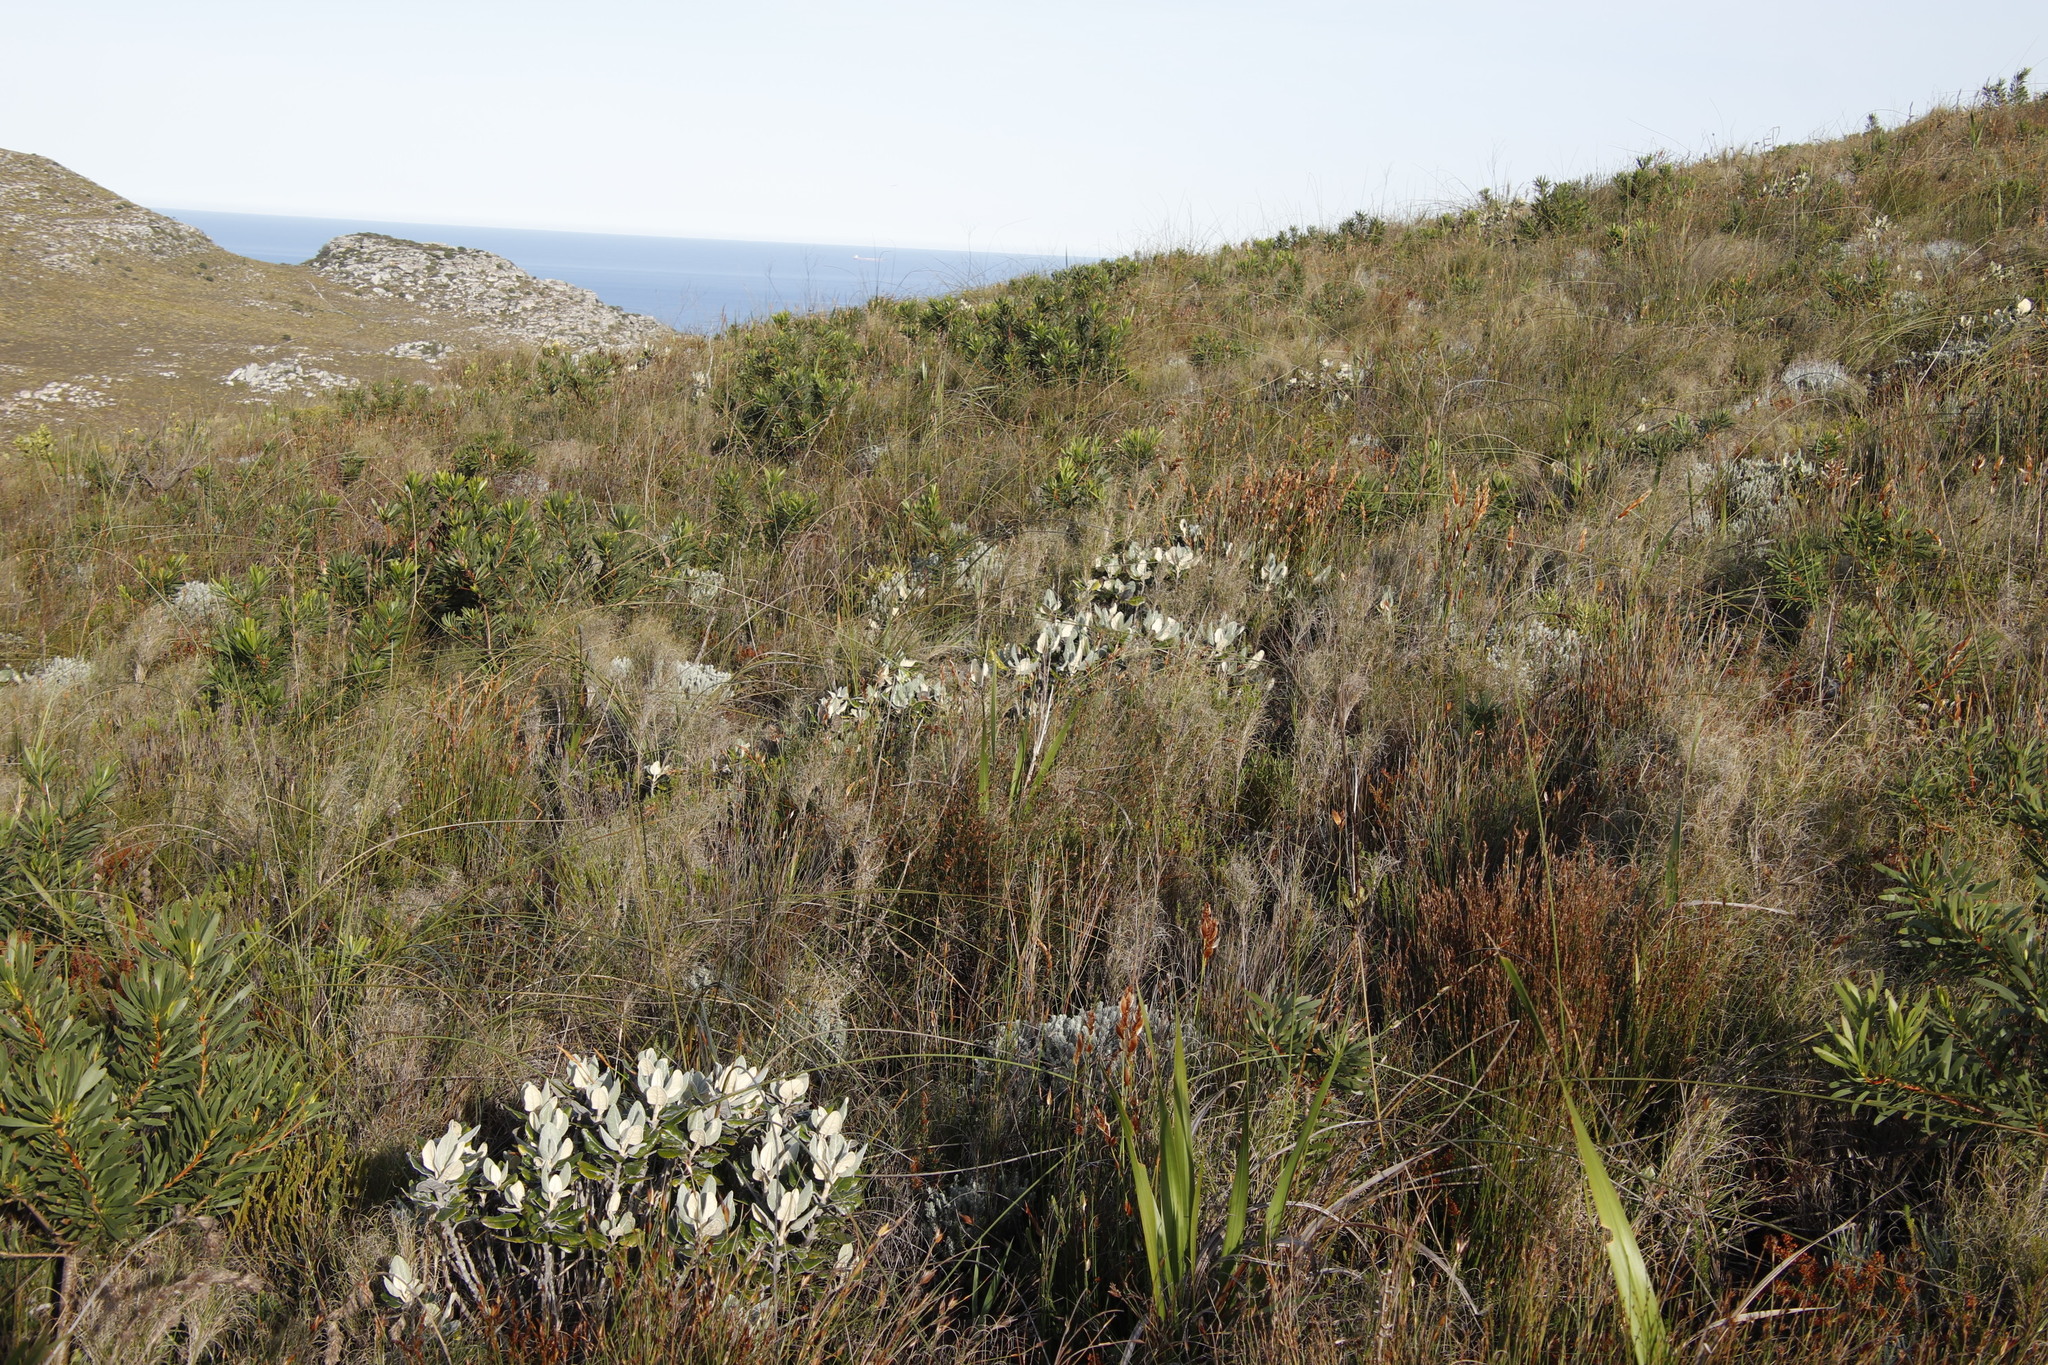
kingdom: Plantae
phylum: Tracheophyta
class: Liliopsida
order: Poales
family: Poaceae
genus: Pseudopentameris
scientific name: Pseudopentameris macrantha
